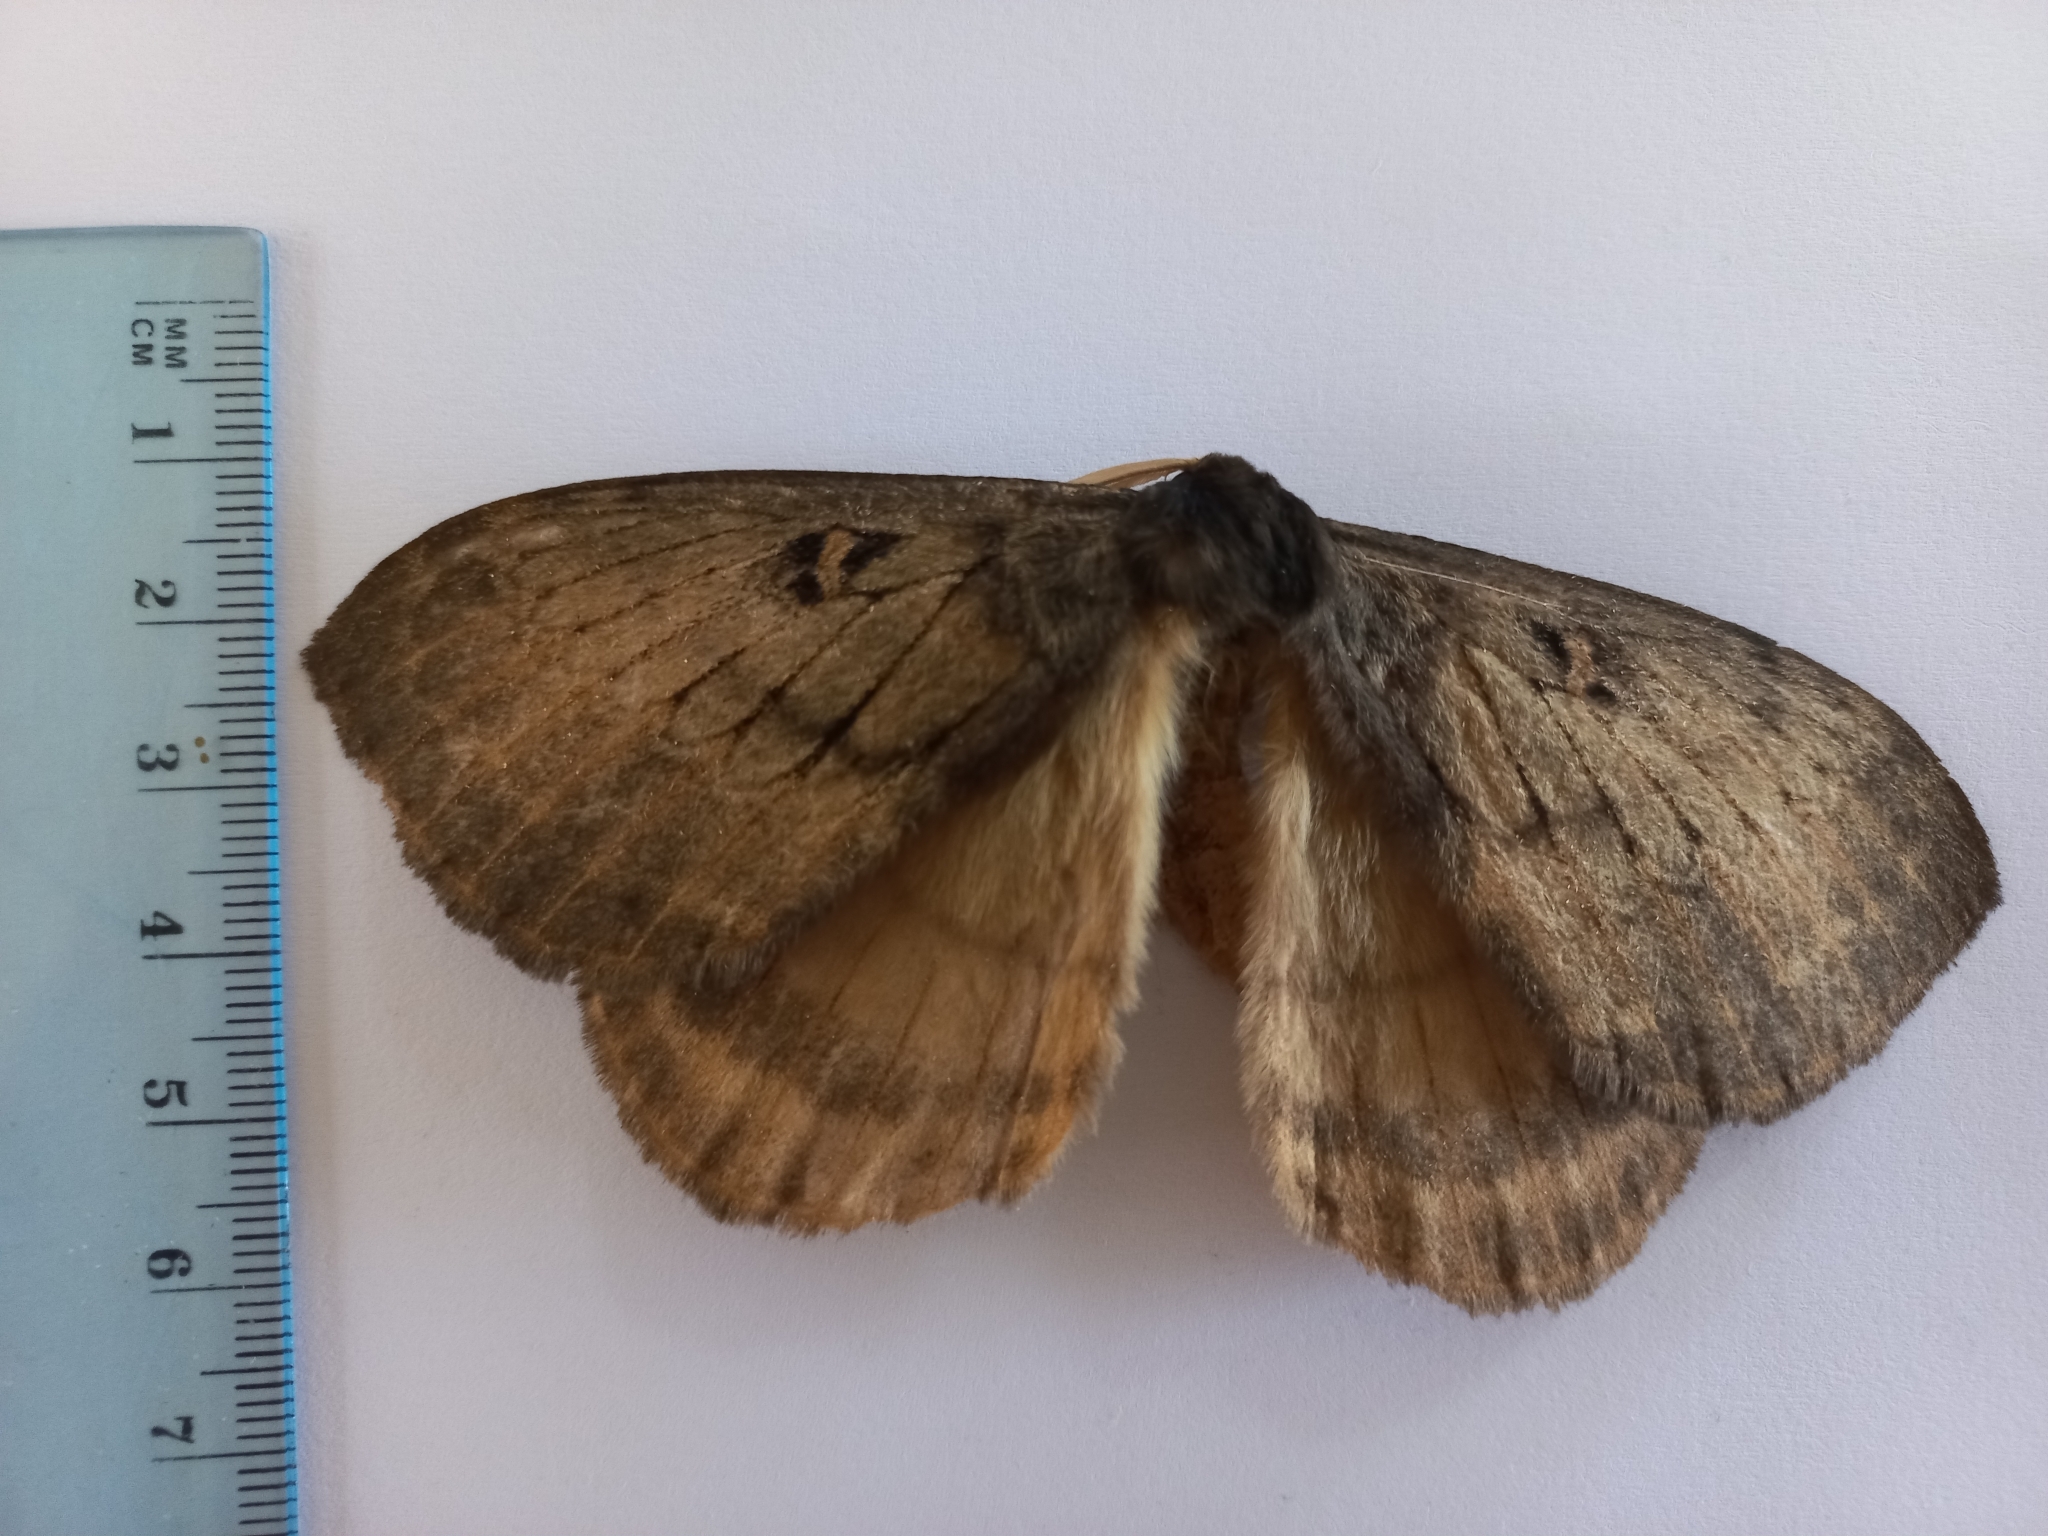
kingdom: Animalia
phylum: Arthropoda
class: Insecta
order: Lepidoptera
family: Eupterotidae
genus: Jana
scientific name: Jana tantalus
